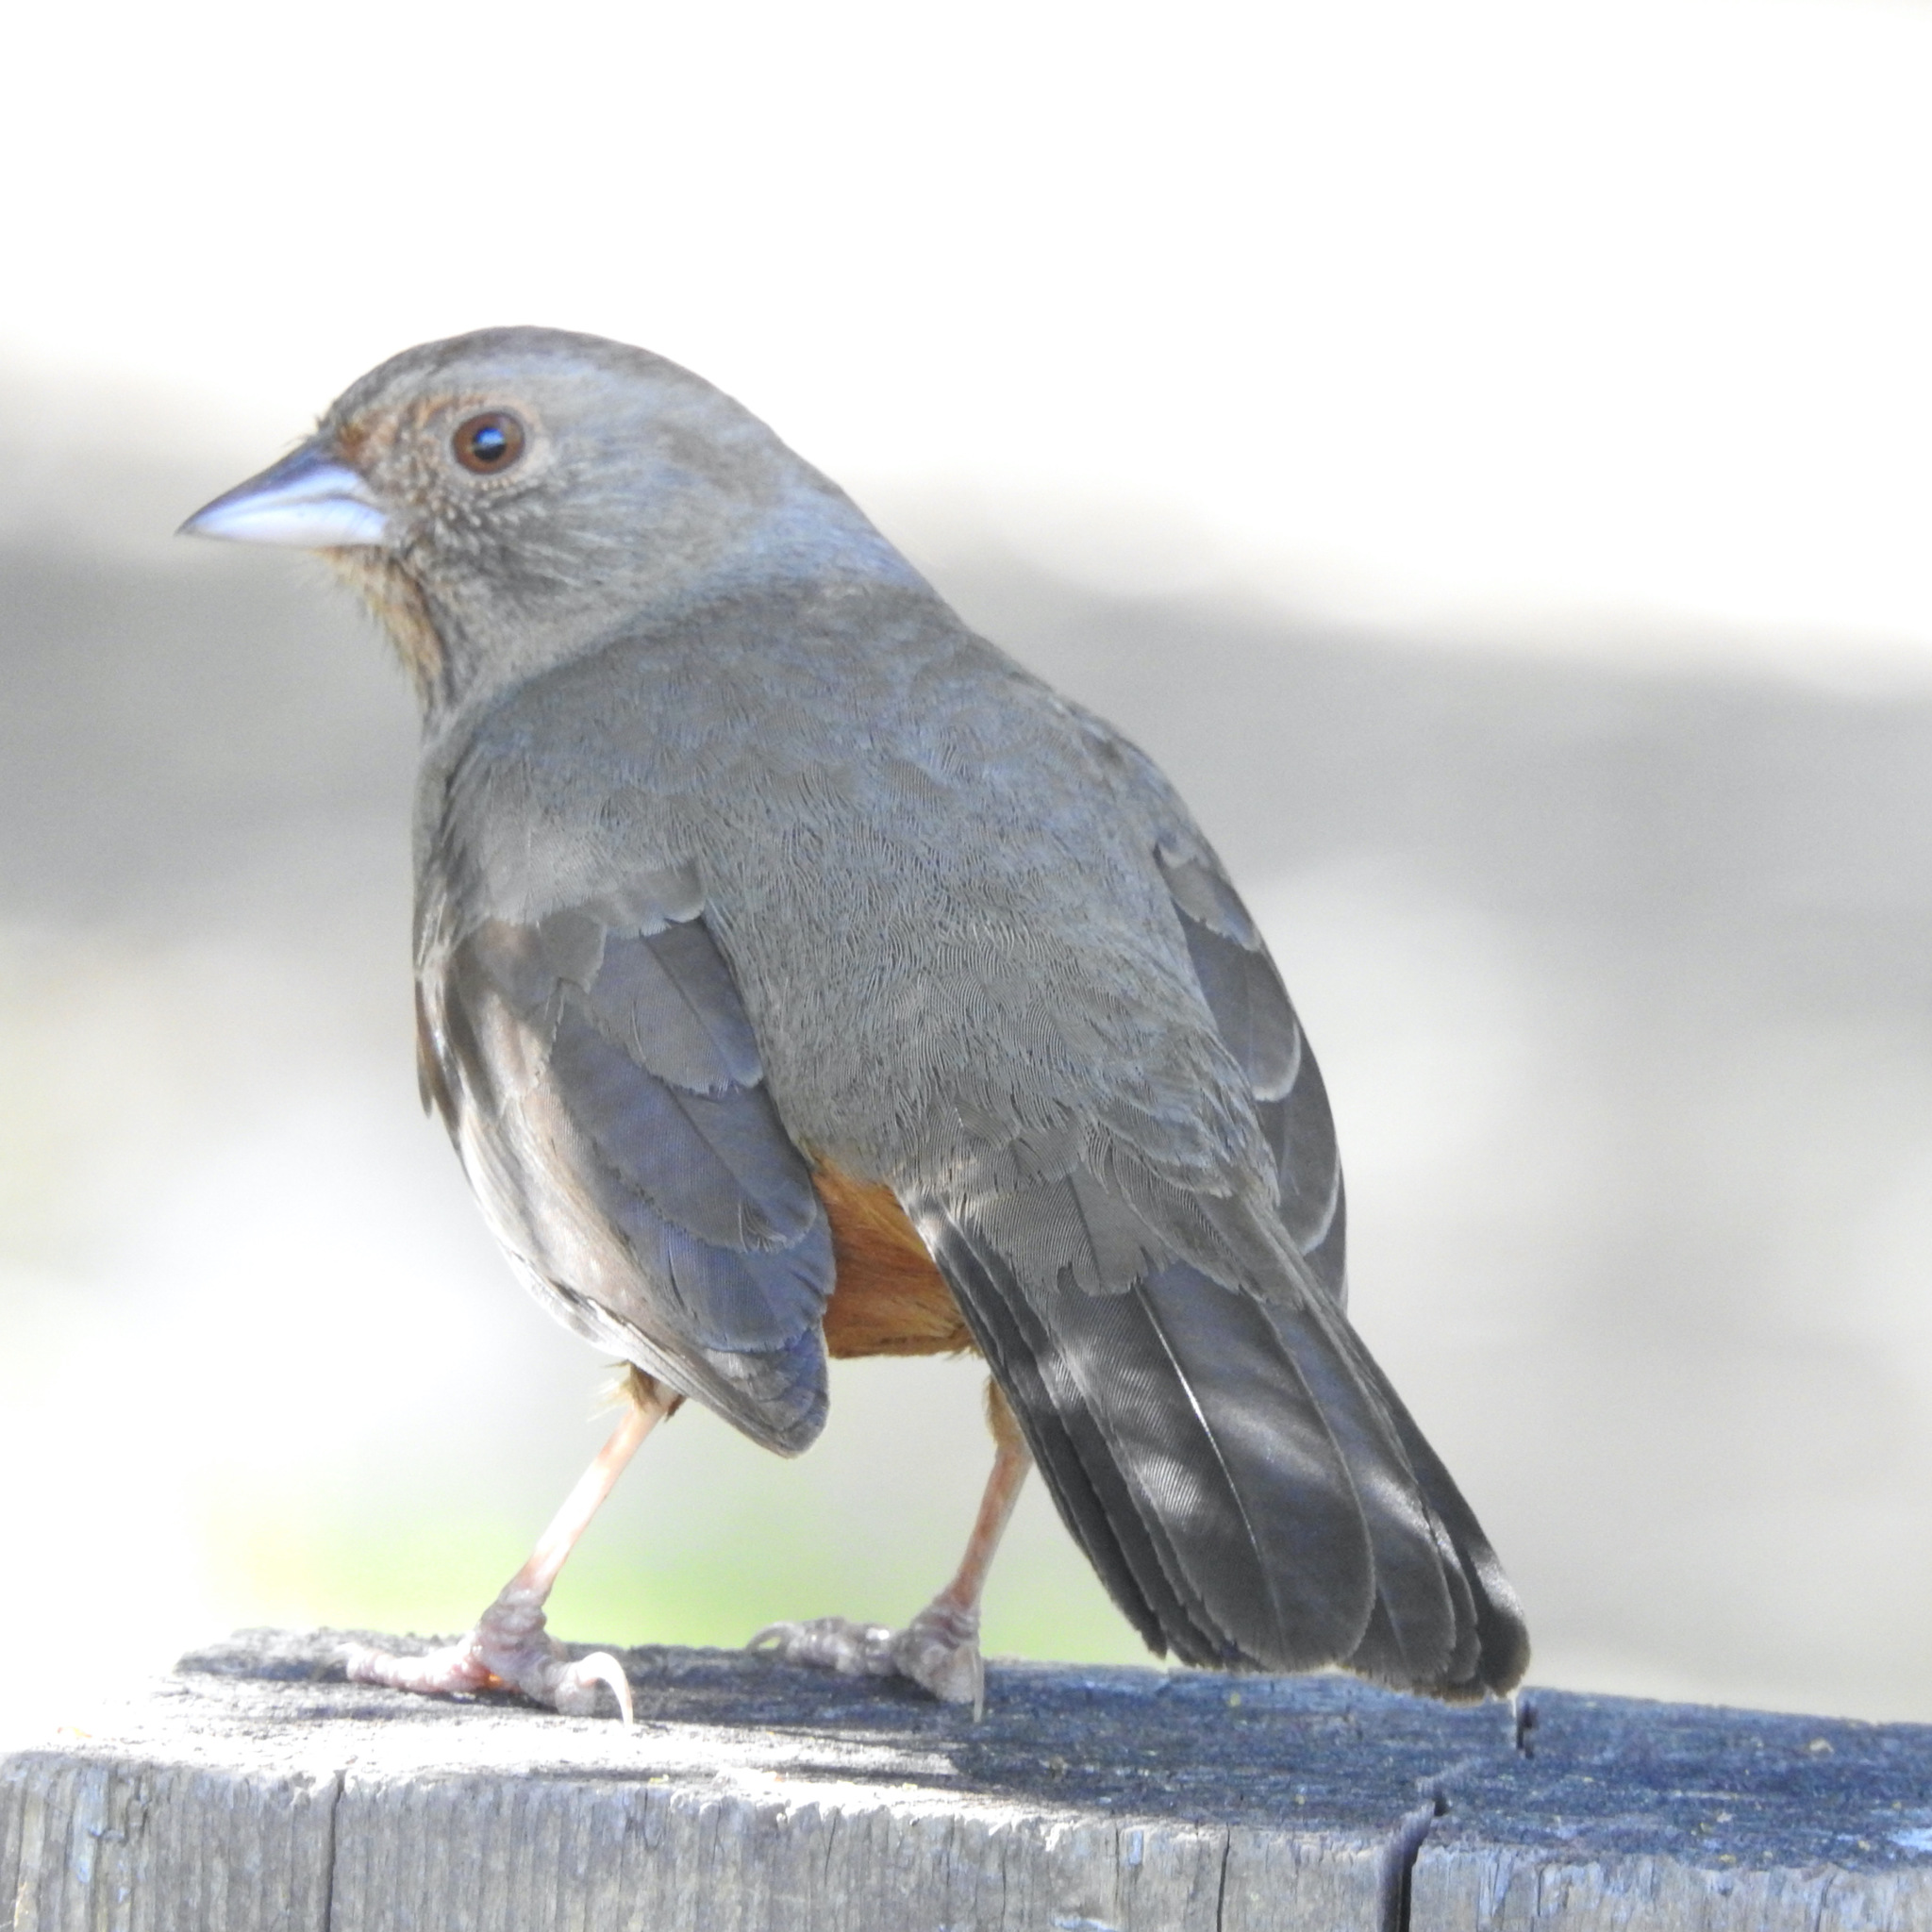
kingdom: Animalia
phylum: Chordata
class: Aves
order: Passeriformes
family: Passerellidae
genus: Melozone
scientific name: Melozone crissalis
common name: California towhee
